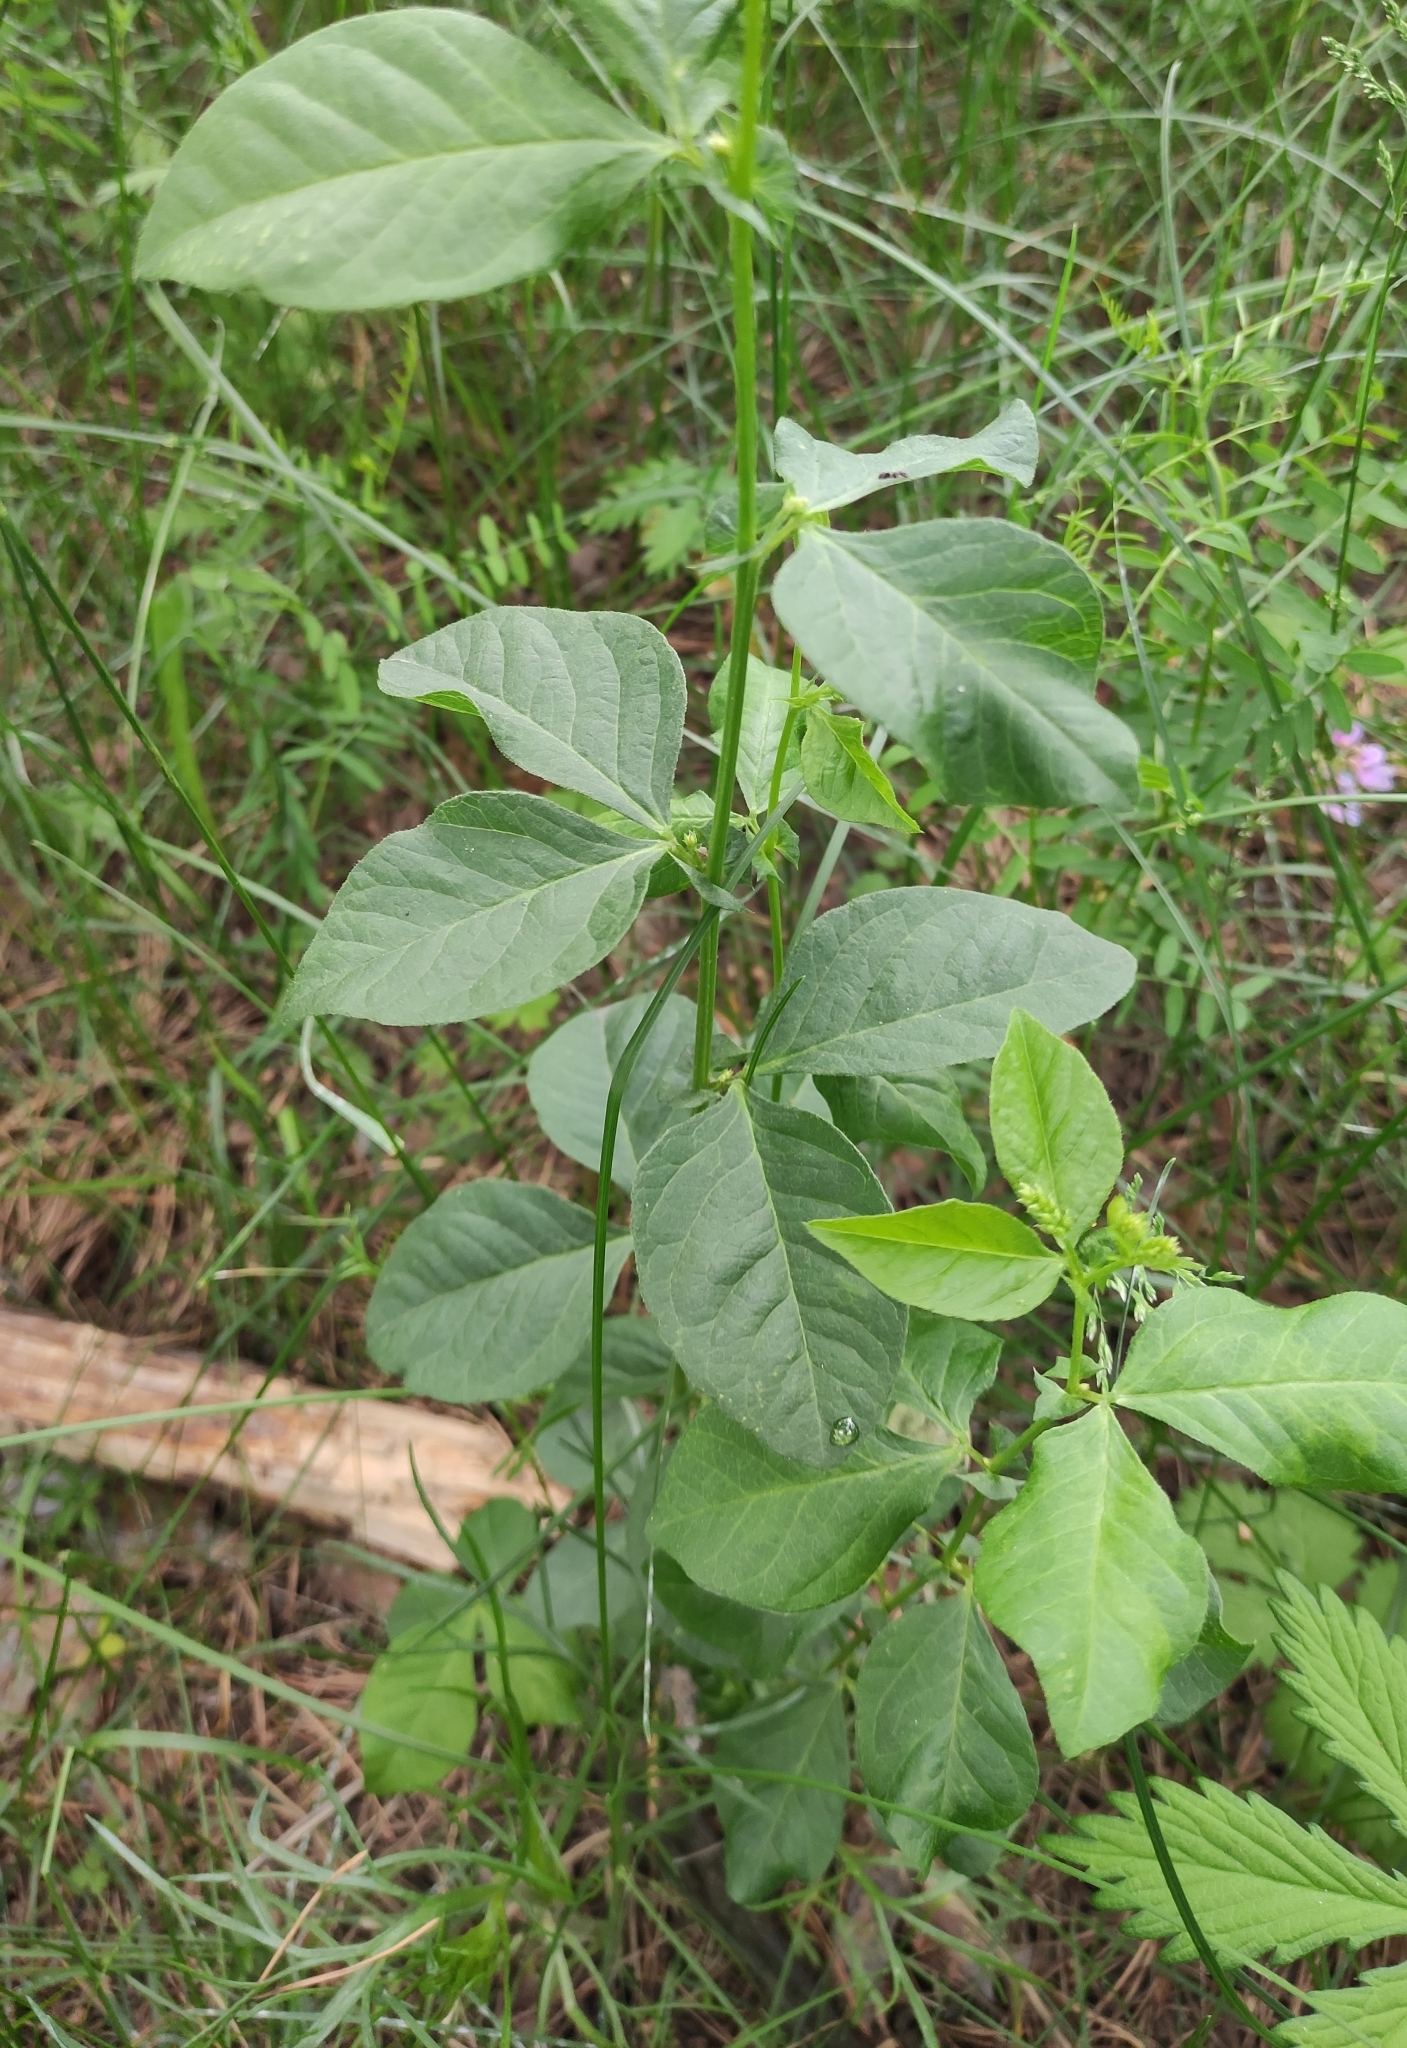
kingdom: Plantae
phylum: Tracheophyta
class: Magnoliopsida
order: Fabales
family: Fabaceae
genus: Vicia
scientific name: Vicia unijuga
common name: Two-leaf vetch
